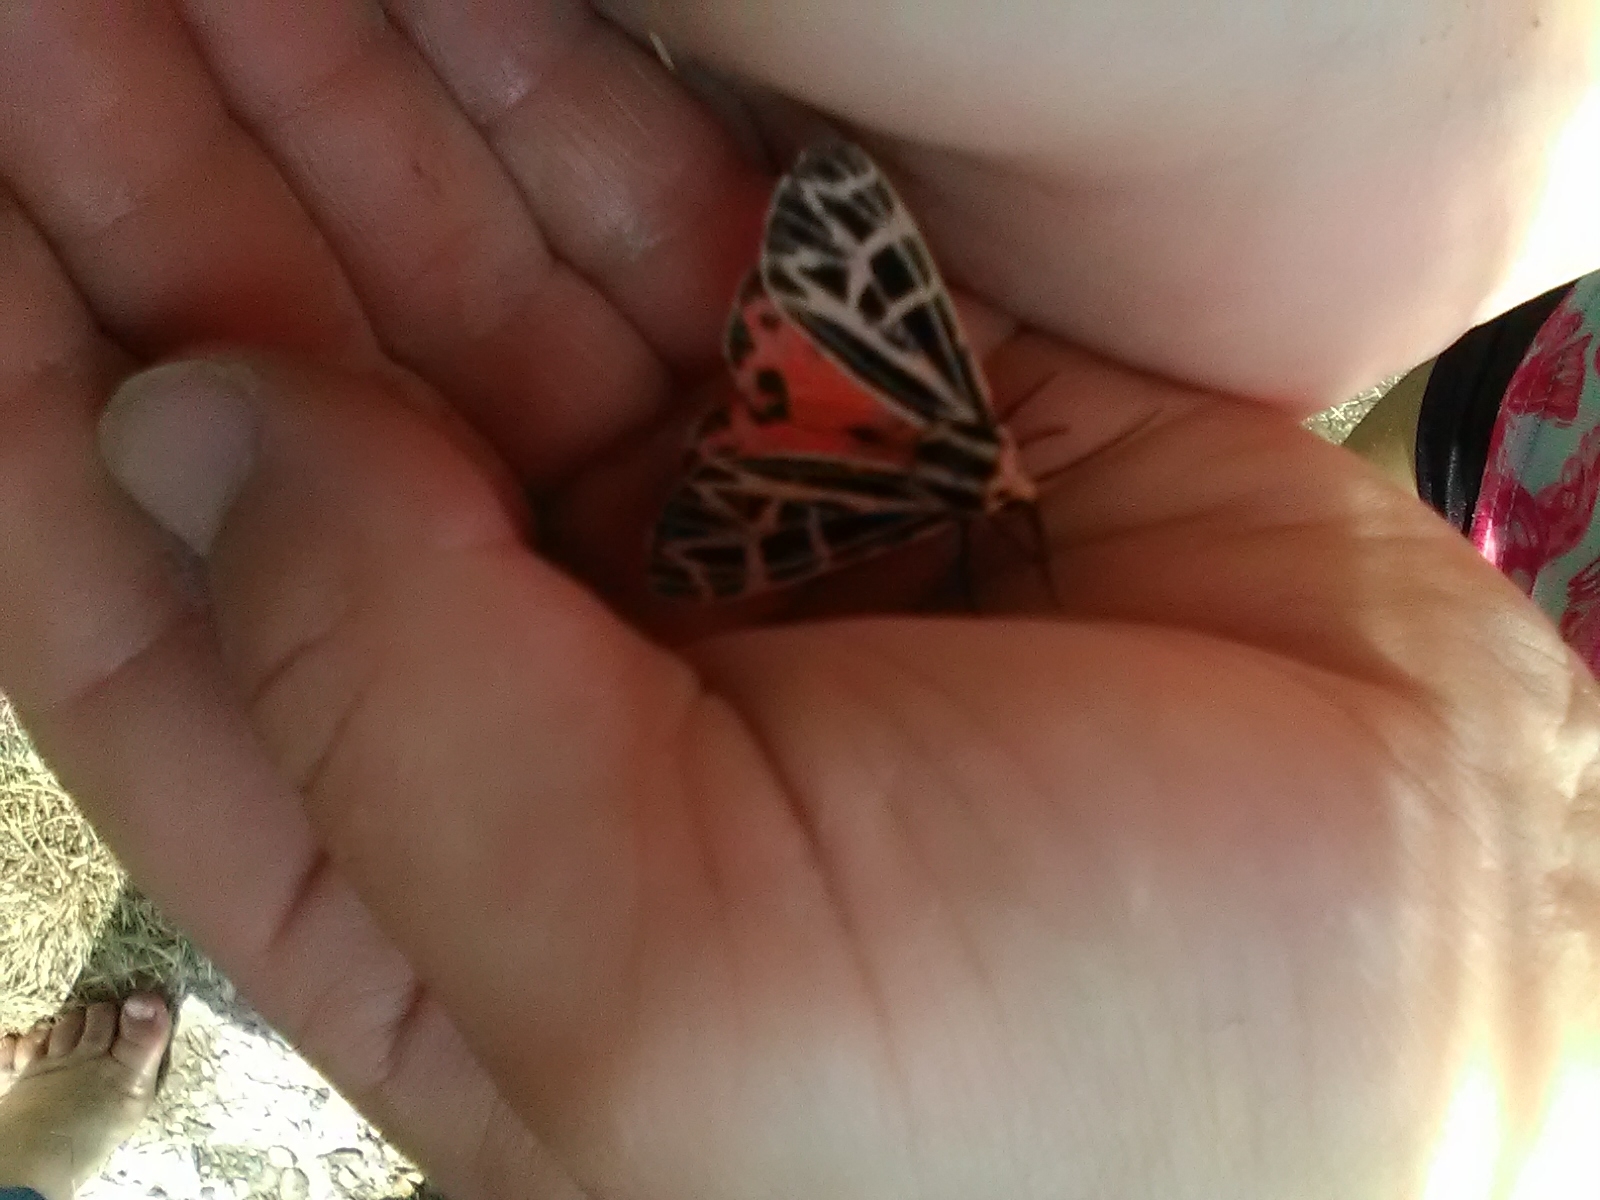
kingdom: Animalia
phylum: Arthropoda
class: Insecta
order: Lepidoptera
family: Erebidae
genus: Grammia
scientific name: Grammia parthenice
